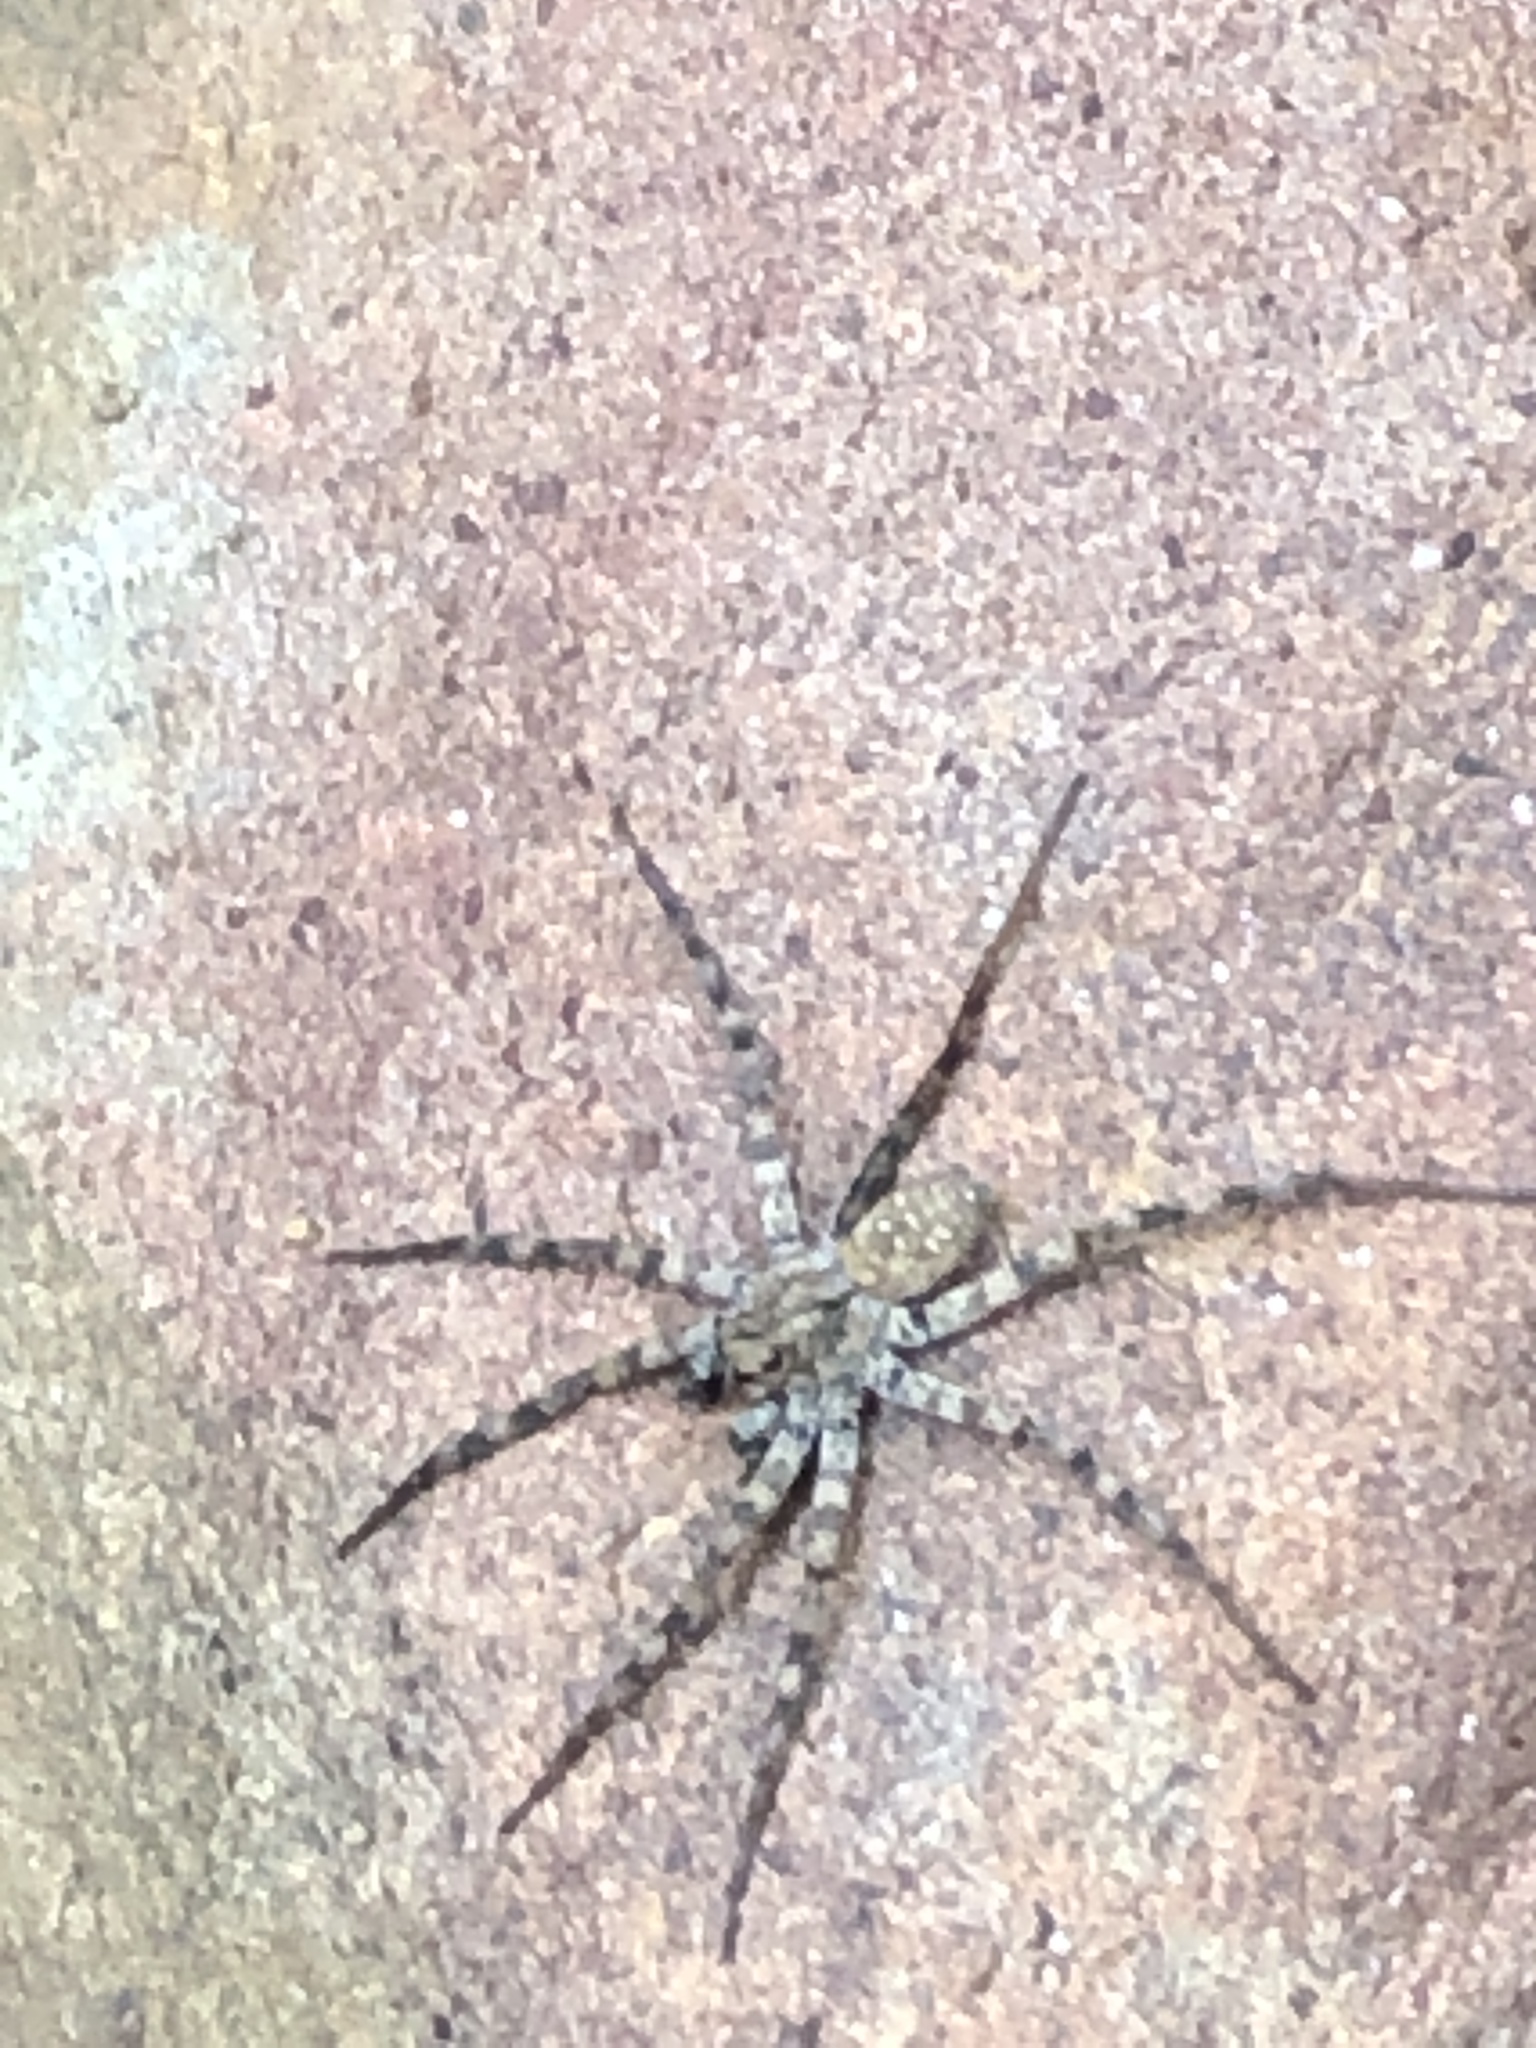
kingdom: Animalia
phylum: Arthropoda
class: Arachnida
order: Araneae
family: Lycosidae
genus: Arctosa
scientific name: Arctosa littoralis
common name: Wolf spiders
